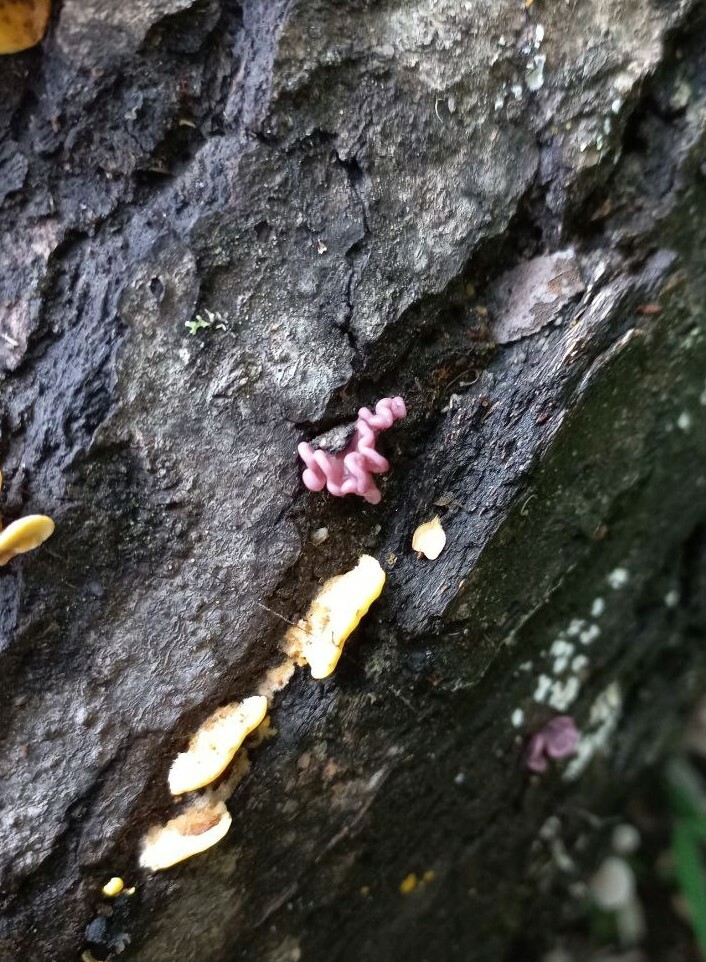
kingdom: Fungi
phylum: Ascomycota
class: Leotiomycetes
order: Helotiales
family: Gelatinodiscaceae
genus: Ascocoryne
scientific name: Ascocoryne sarcoides
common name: Purple jellydisc
